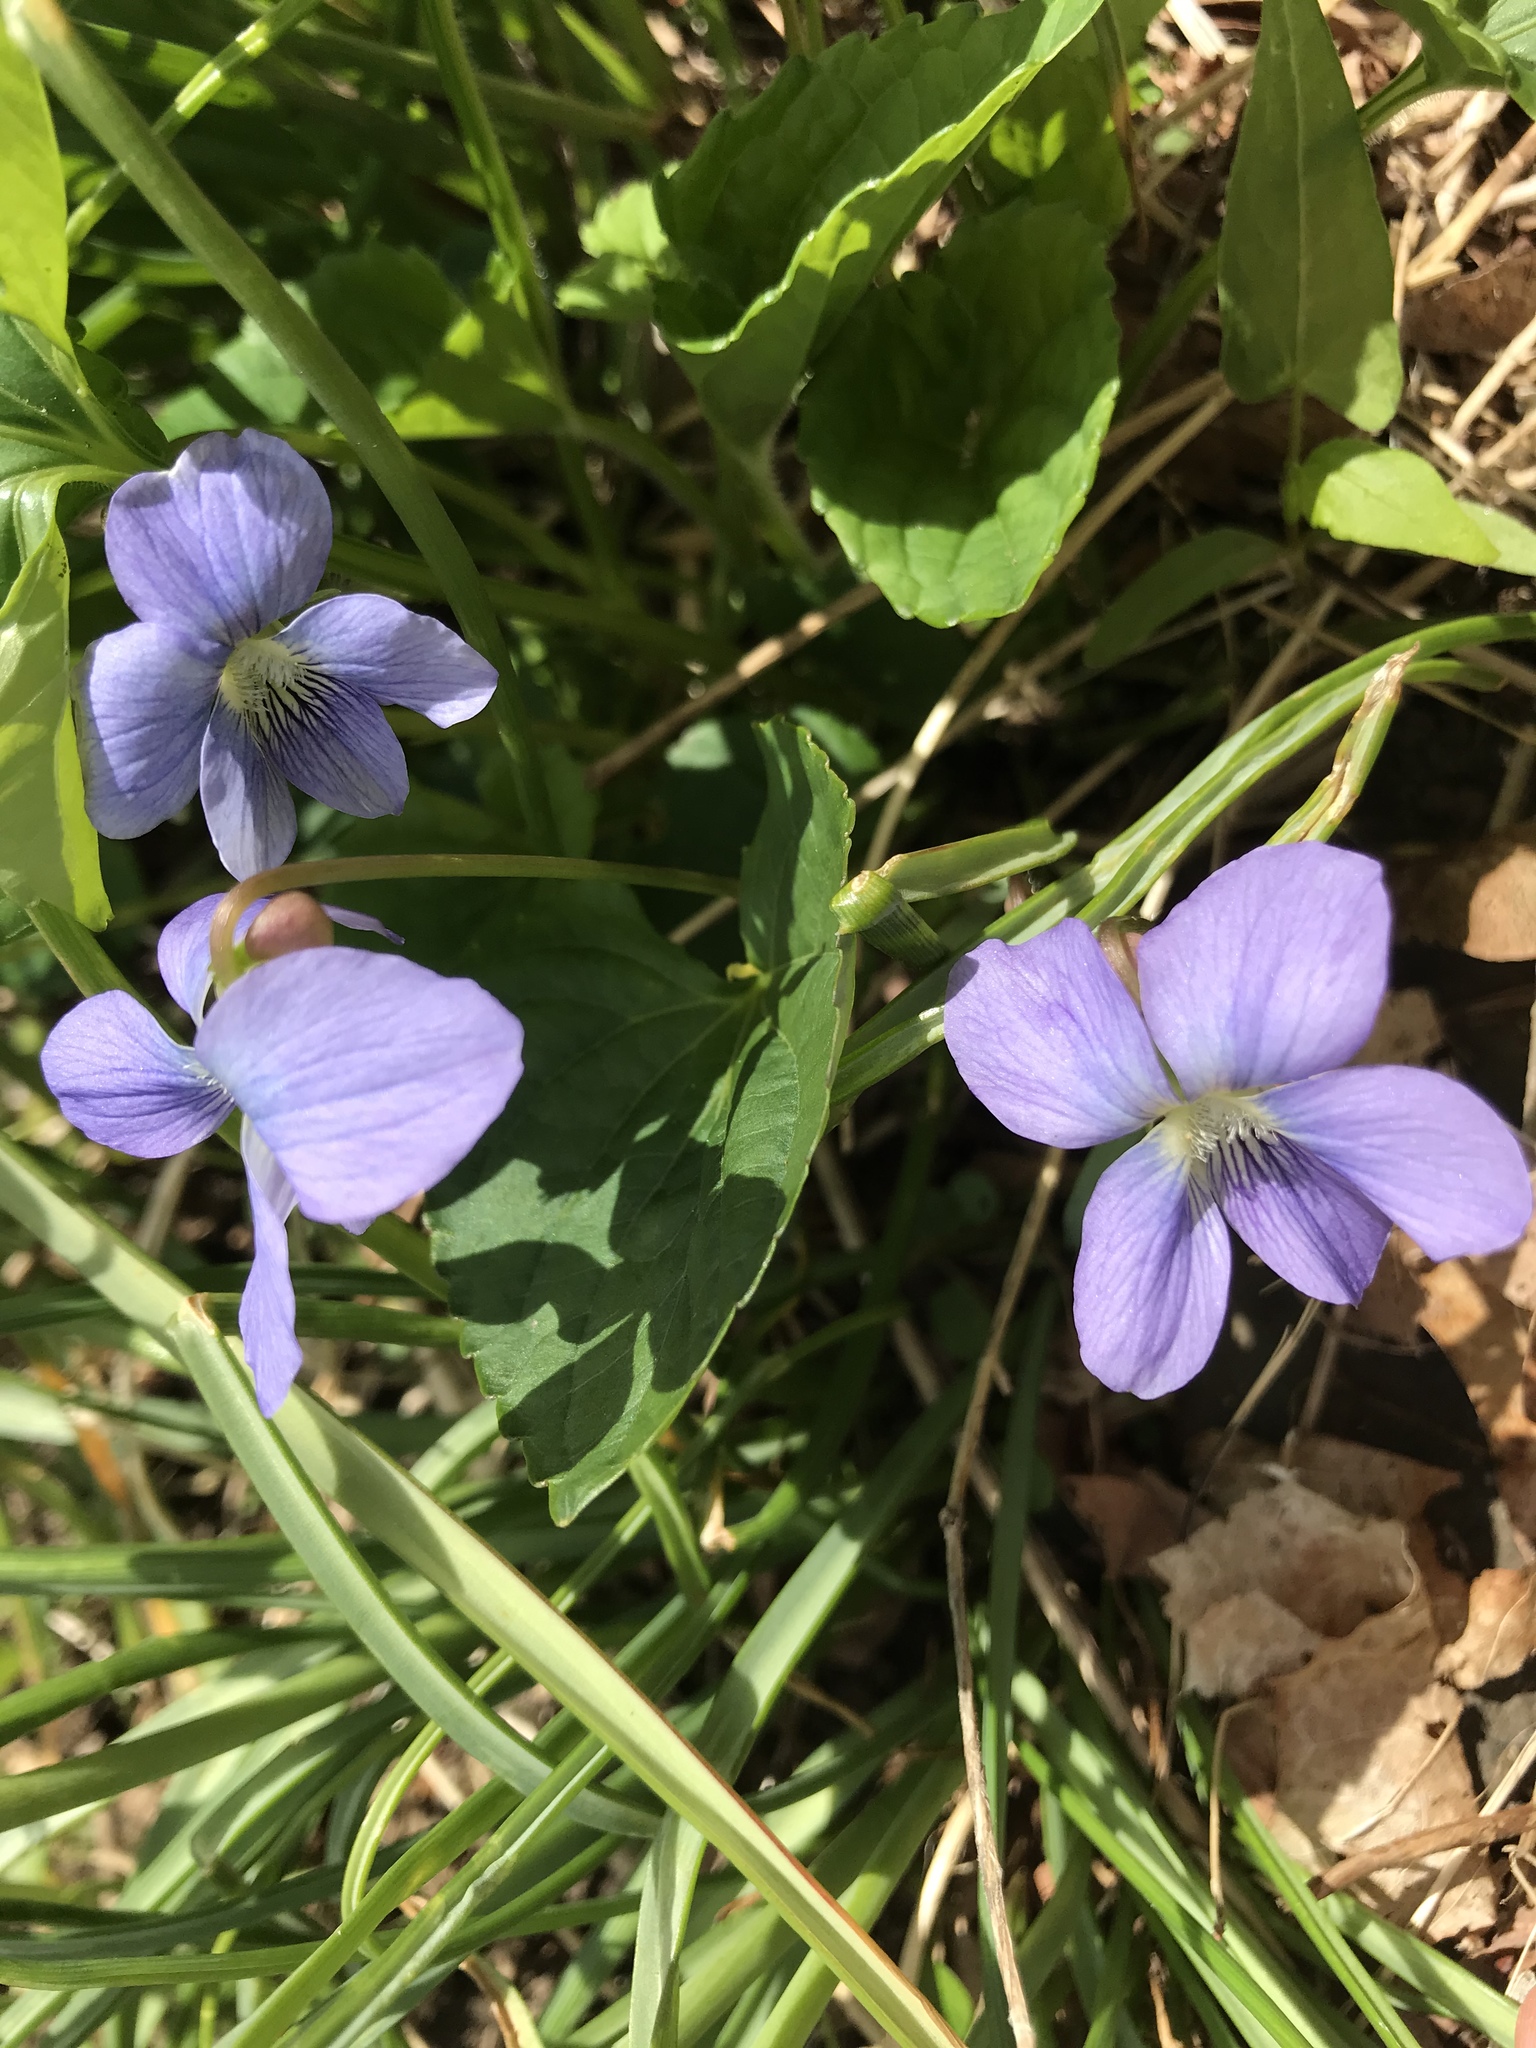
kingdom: Plantae
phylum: Tracheophyta
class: Magnoliopsida
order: Malpighiales
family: Violaceae
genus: Viola
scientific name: Viola sororia
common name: Dooryard violet
